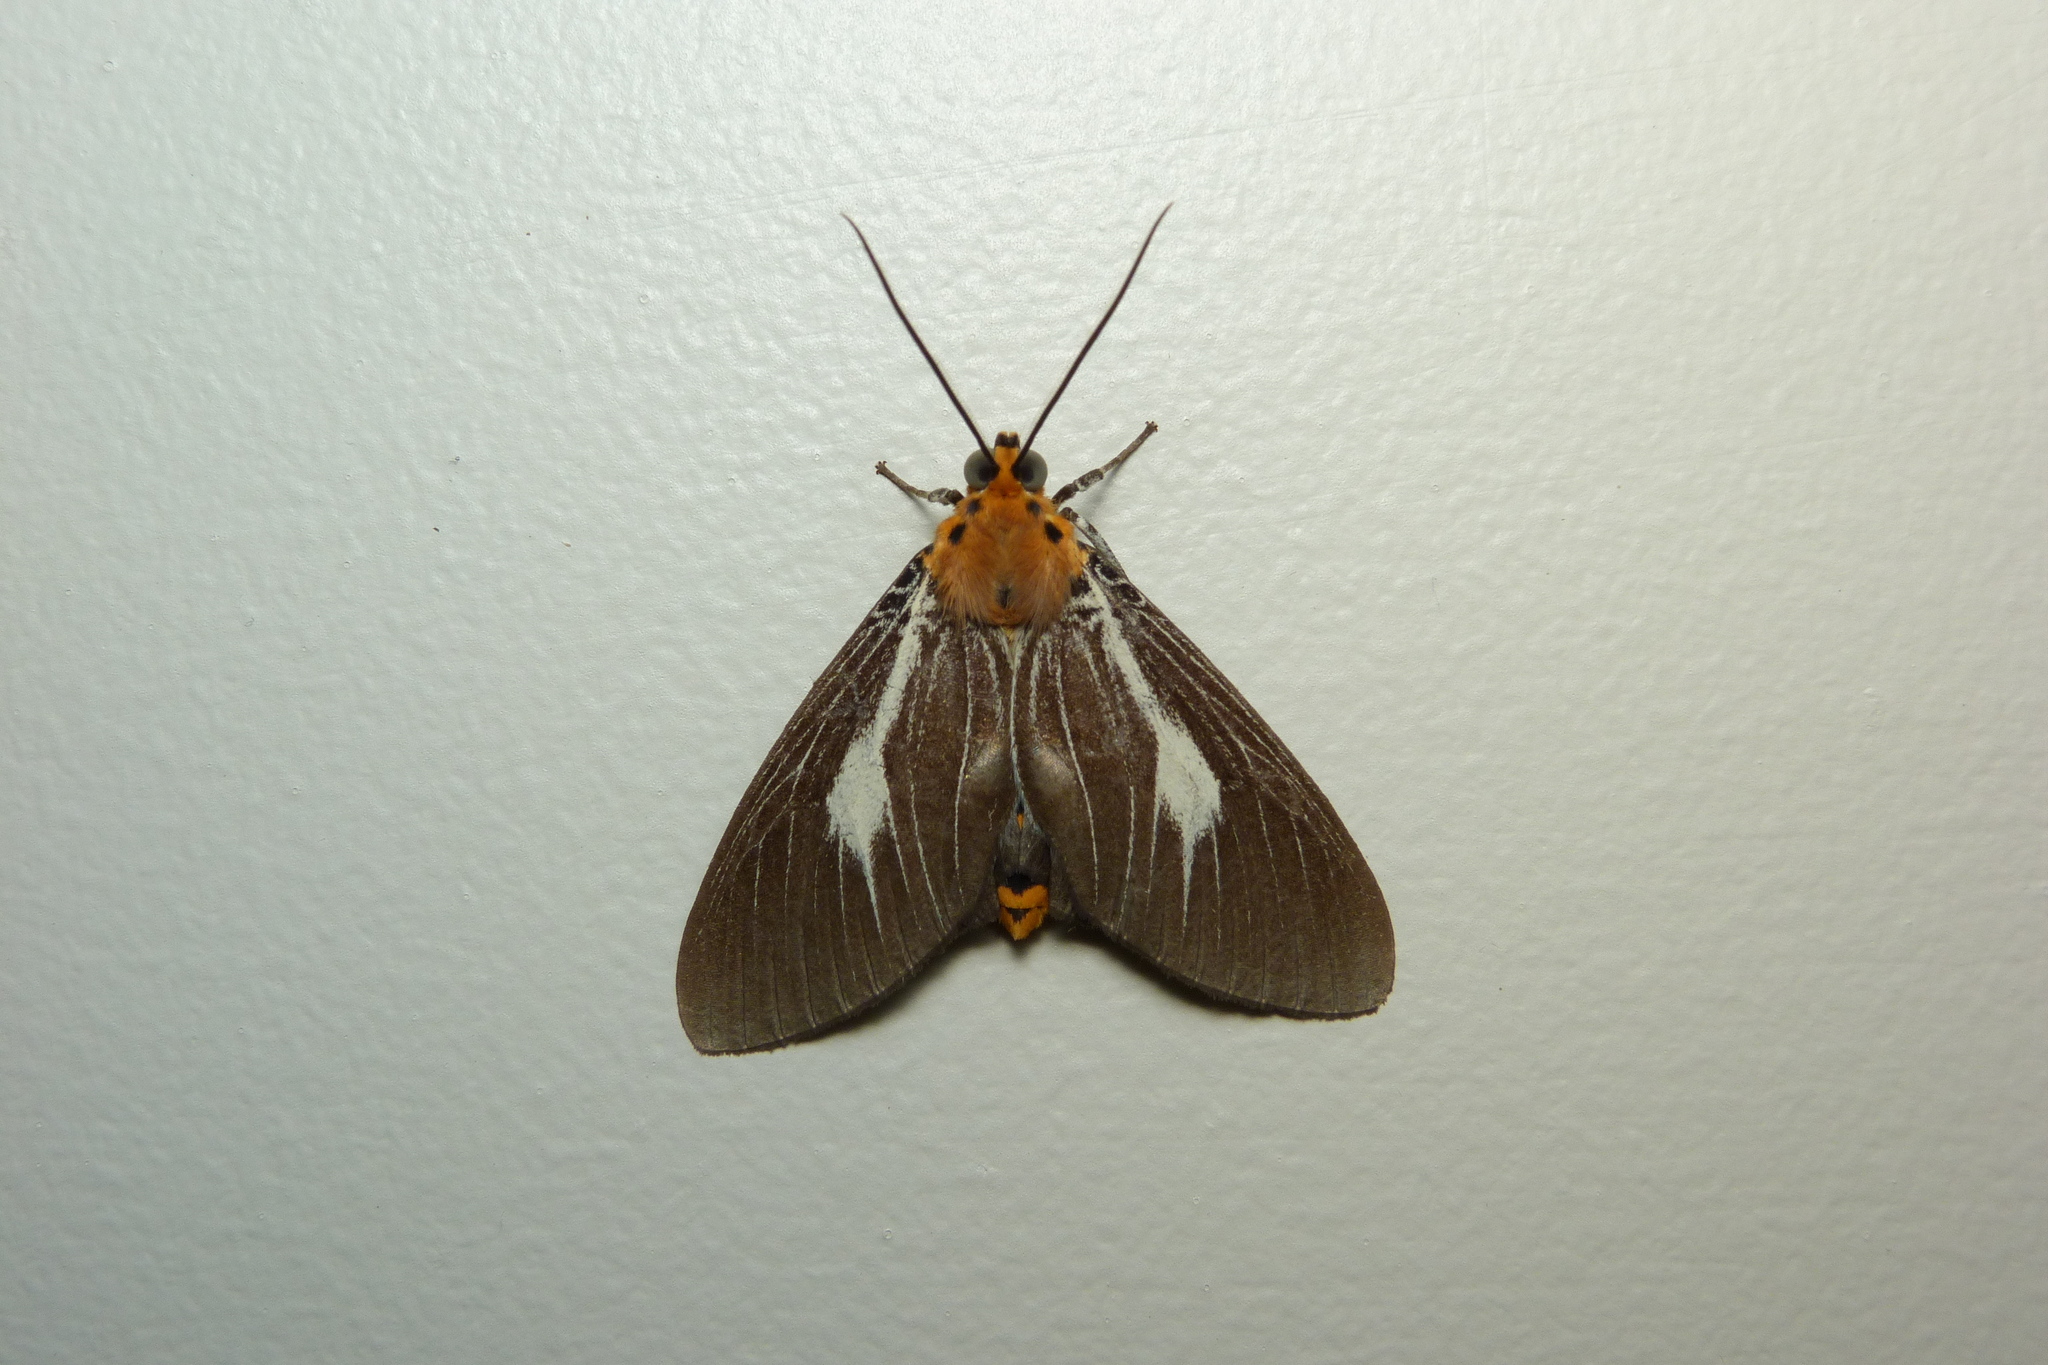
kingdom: Animalia
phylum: Arthropoda
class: Insecta
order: Lepidoptera
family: Erebidae
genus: Asota
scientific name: Asota heliconia
